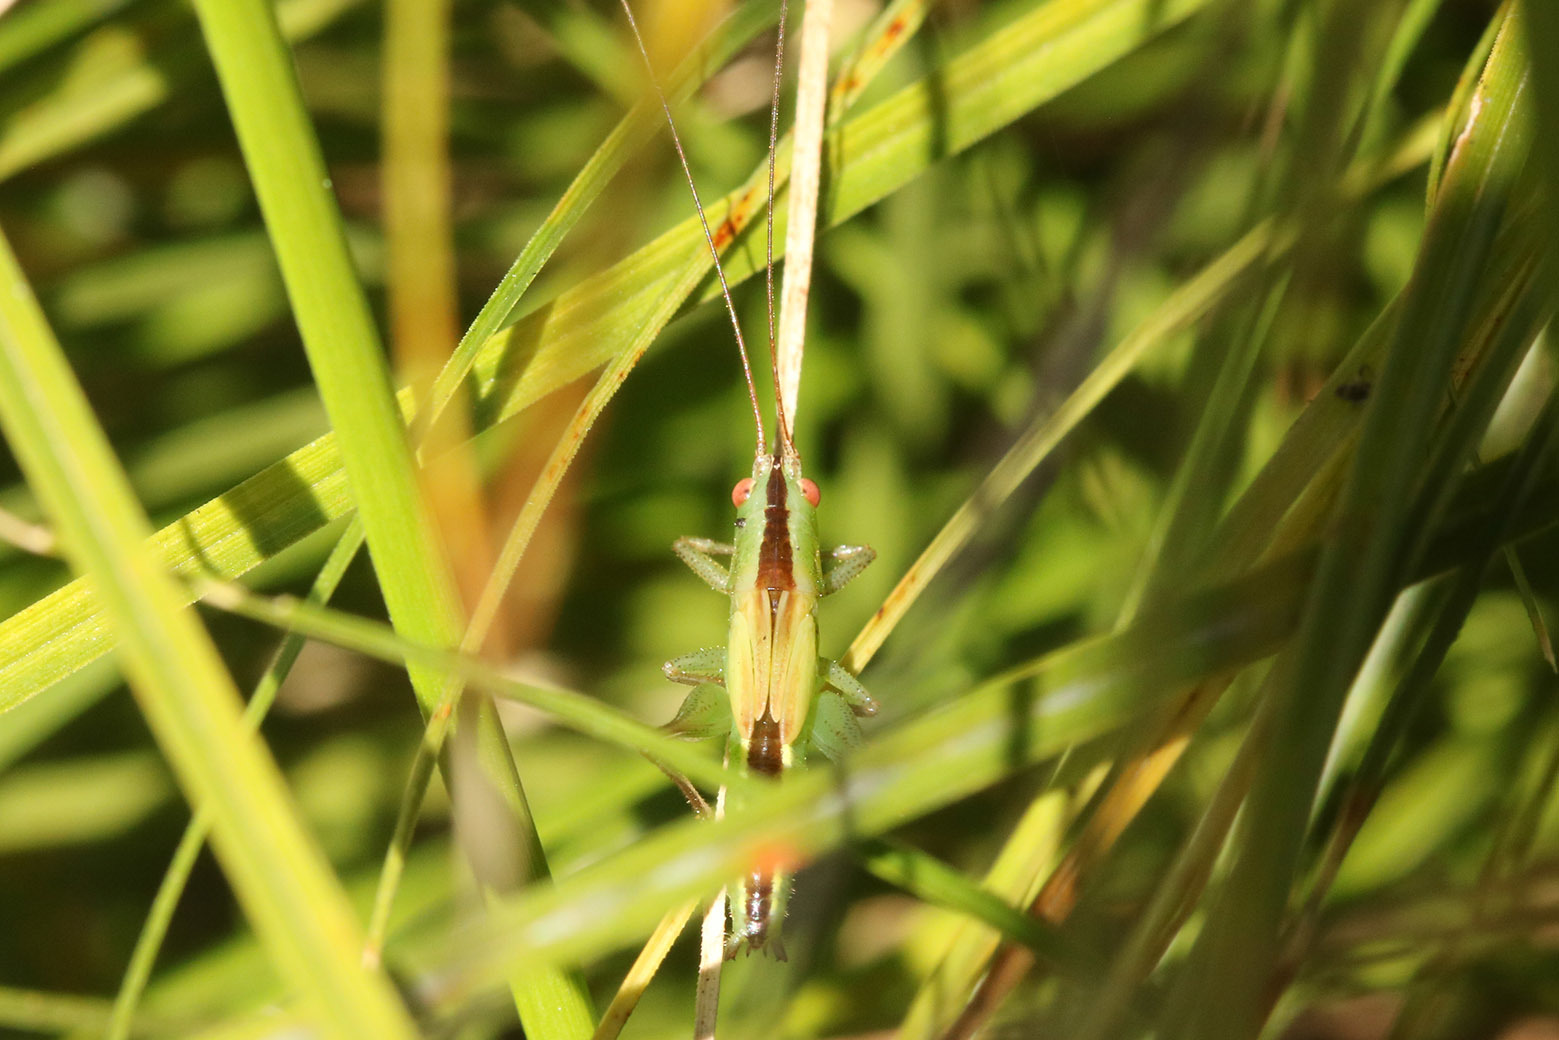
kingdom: Animalia
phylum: Arthropoda
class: Insecta
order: Orthoptera
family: Tettigoniidae
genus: Conocephalus
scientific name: Conocephalus longipes
